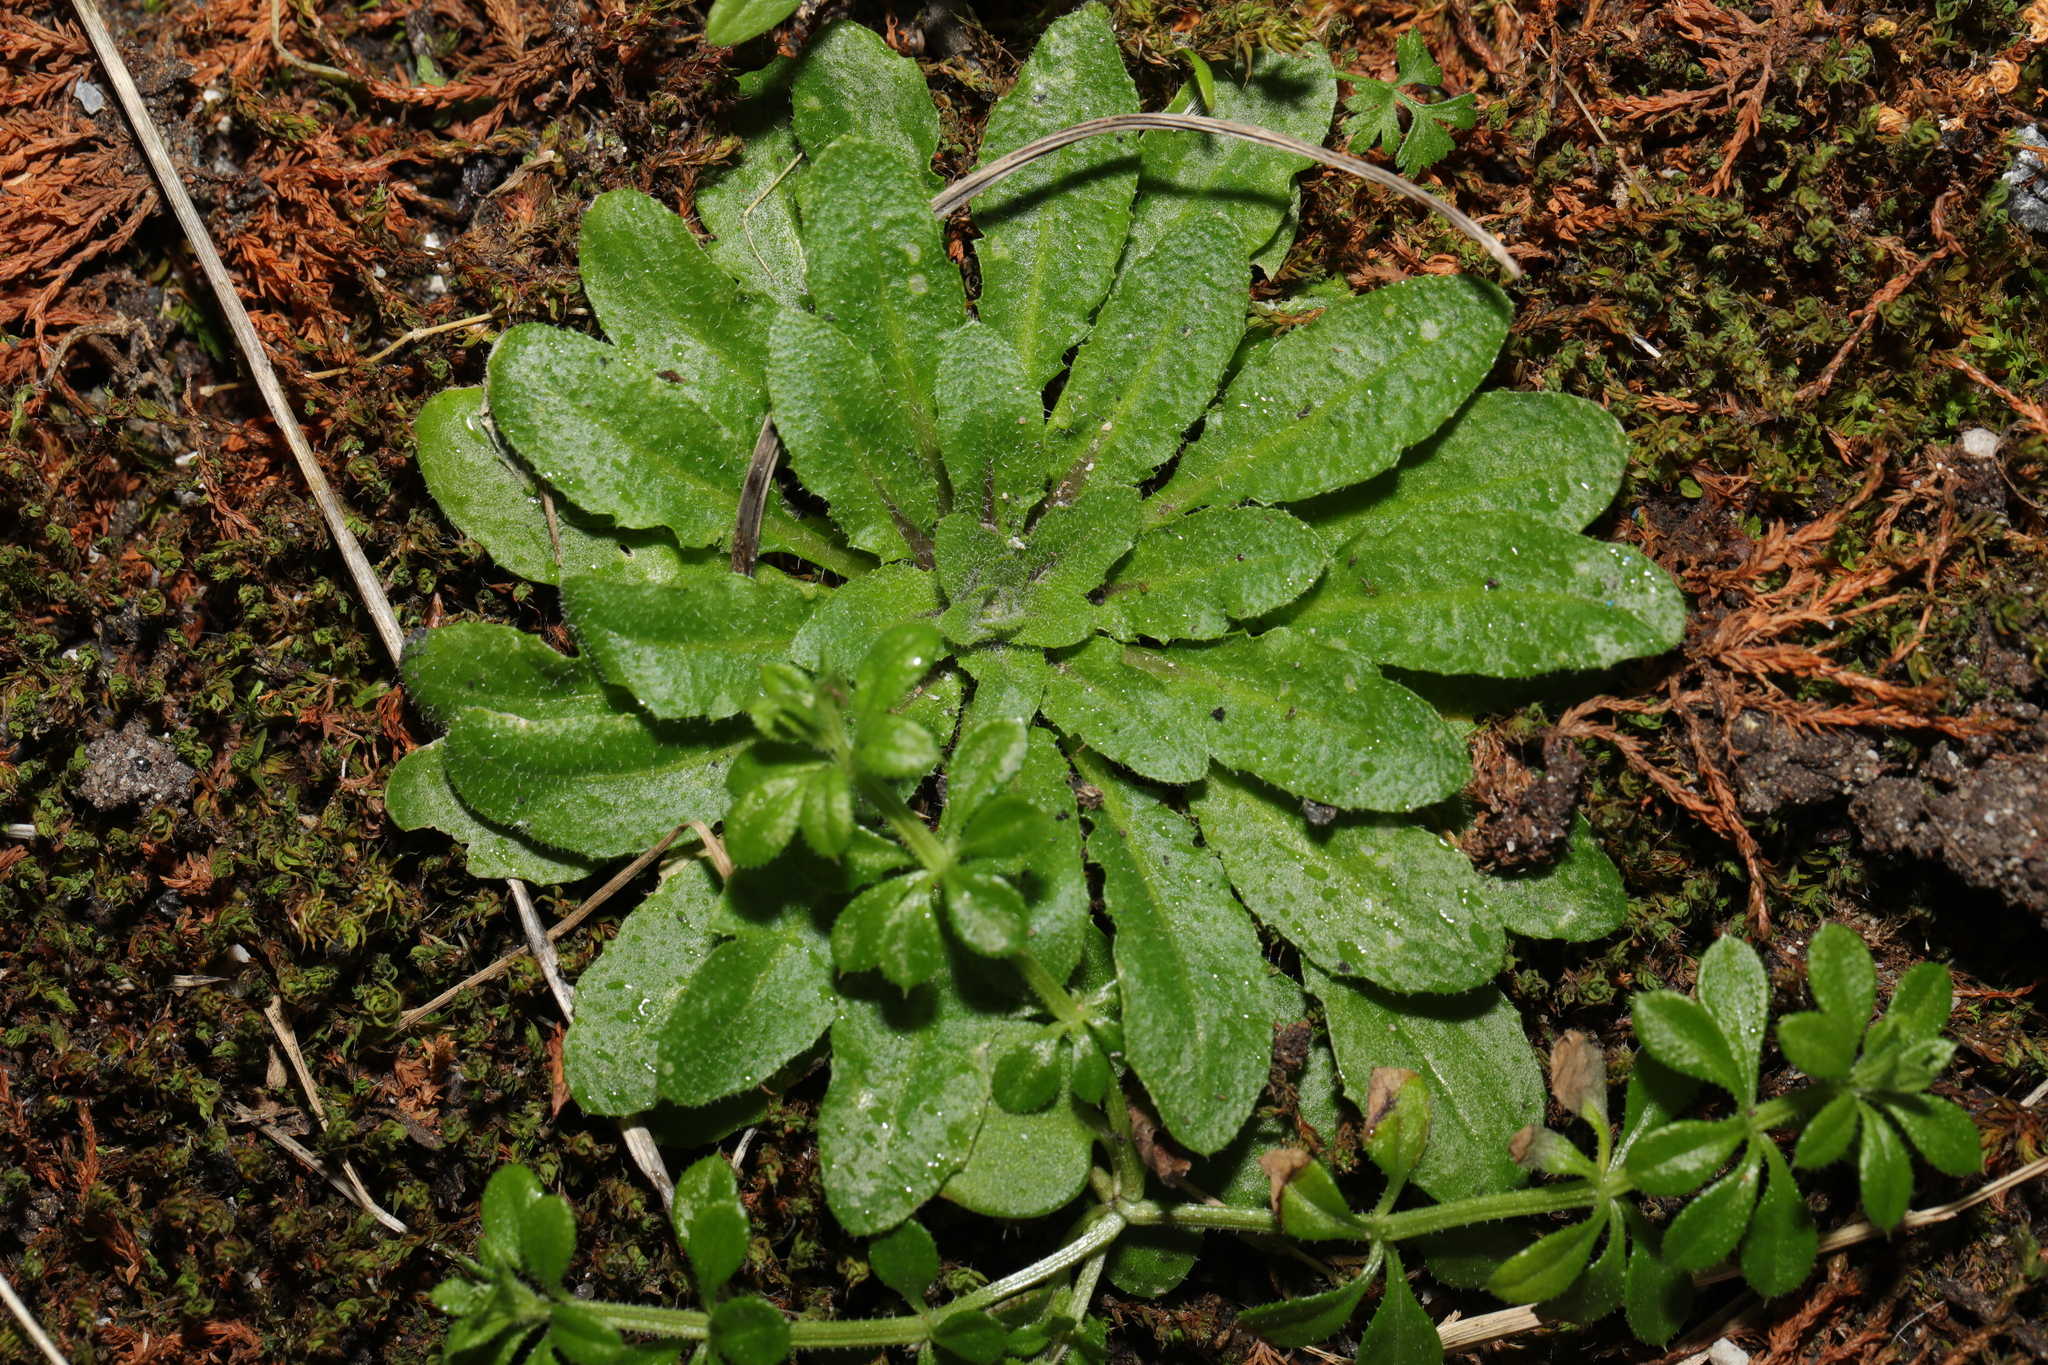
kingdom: Plantae
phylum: Tracheophyta
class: Magnoliopsida
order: Brassicales
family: Brassicaceae
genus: Arabidopsis
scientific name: Arabidopsis thaliana
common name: Thale cress
